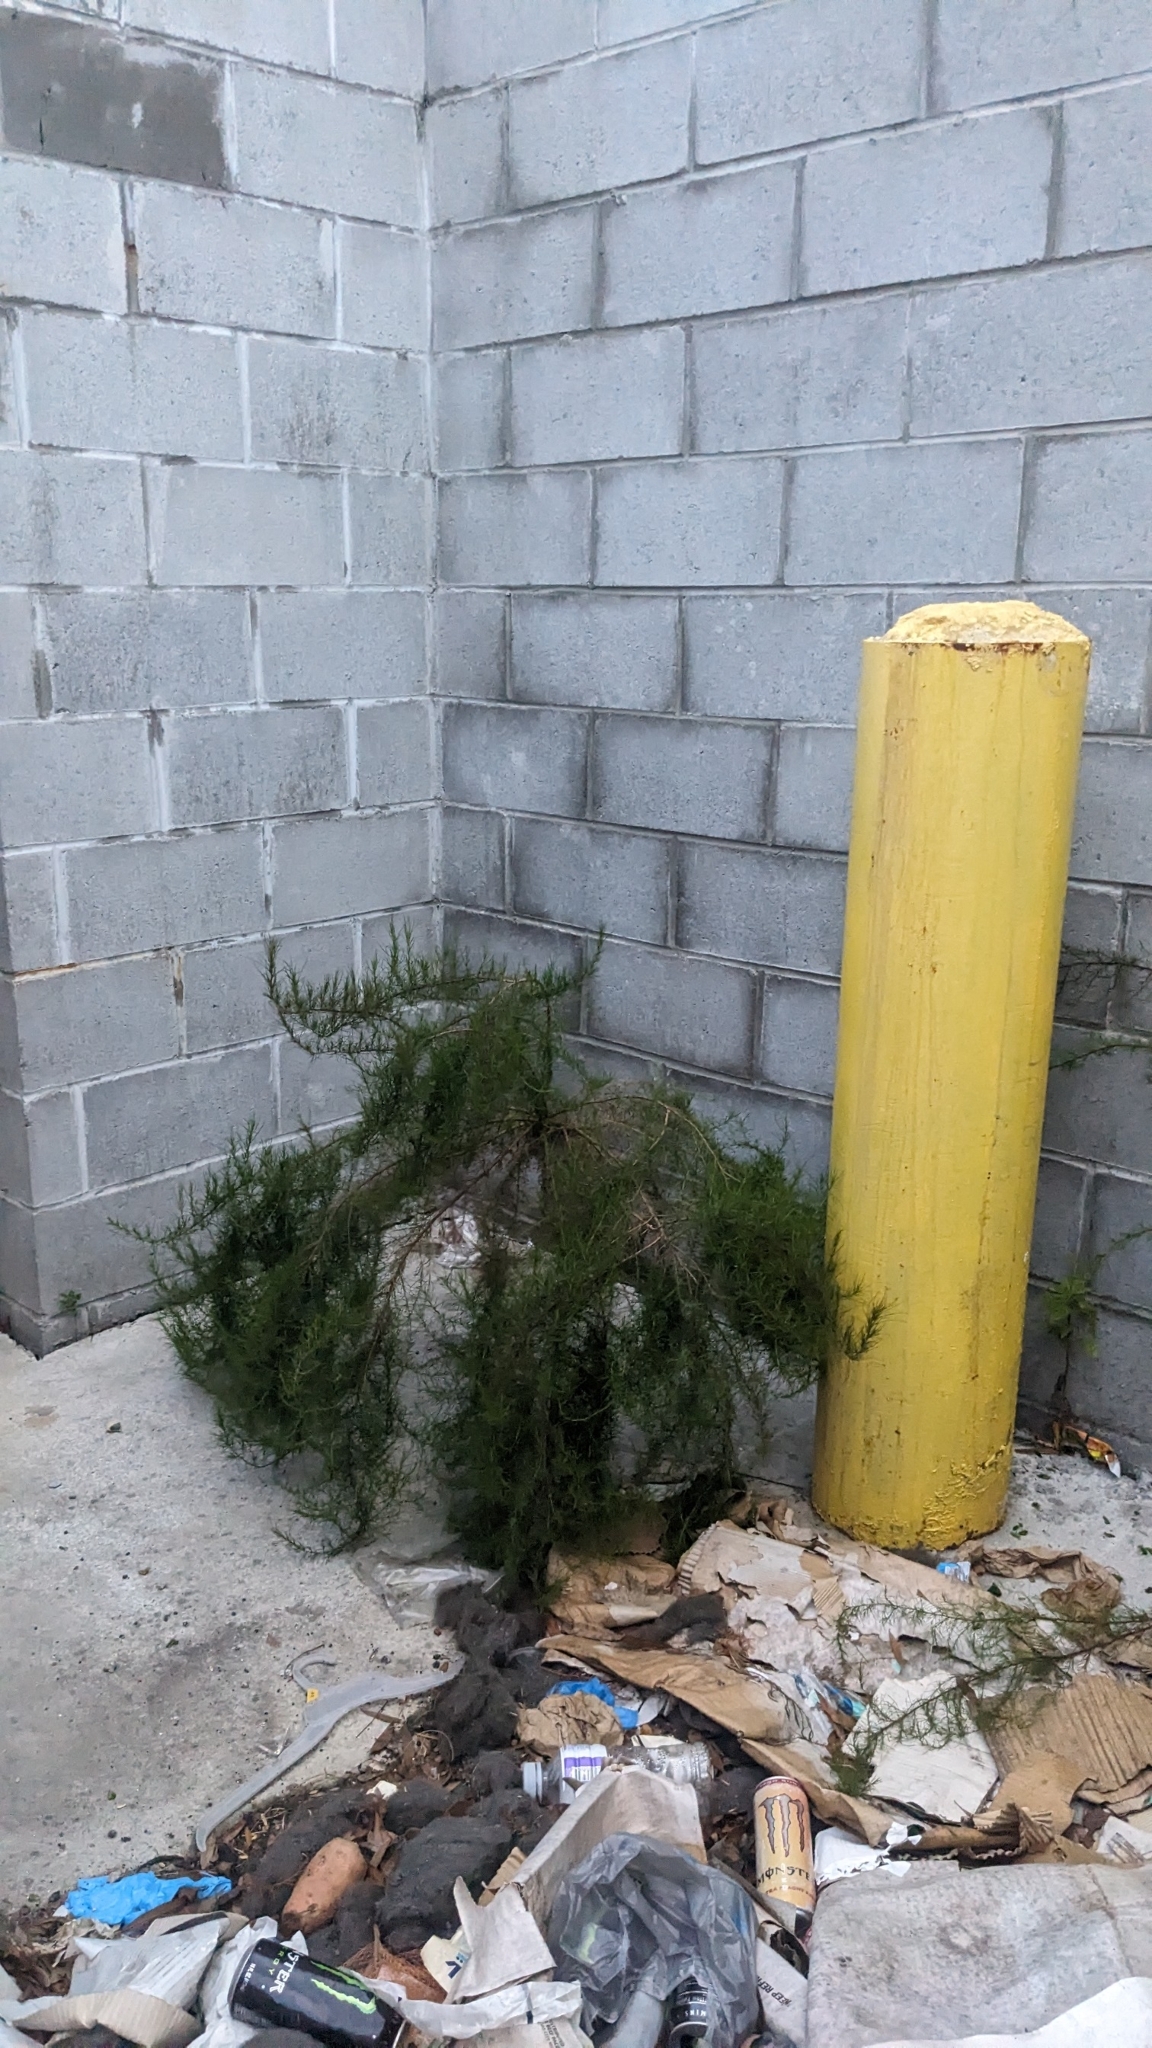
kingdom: Plantae
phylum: Tracheophyta
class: Magnoliopsida
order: Asterales
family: Asteraceae
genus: Eupatorium
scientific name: Eupatorium capillifolium
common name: Dog-fennel
